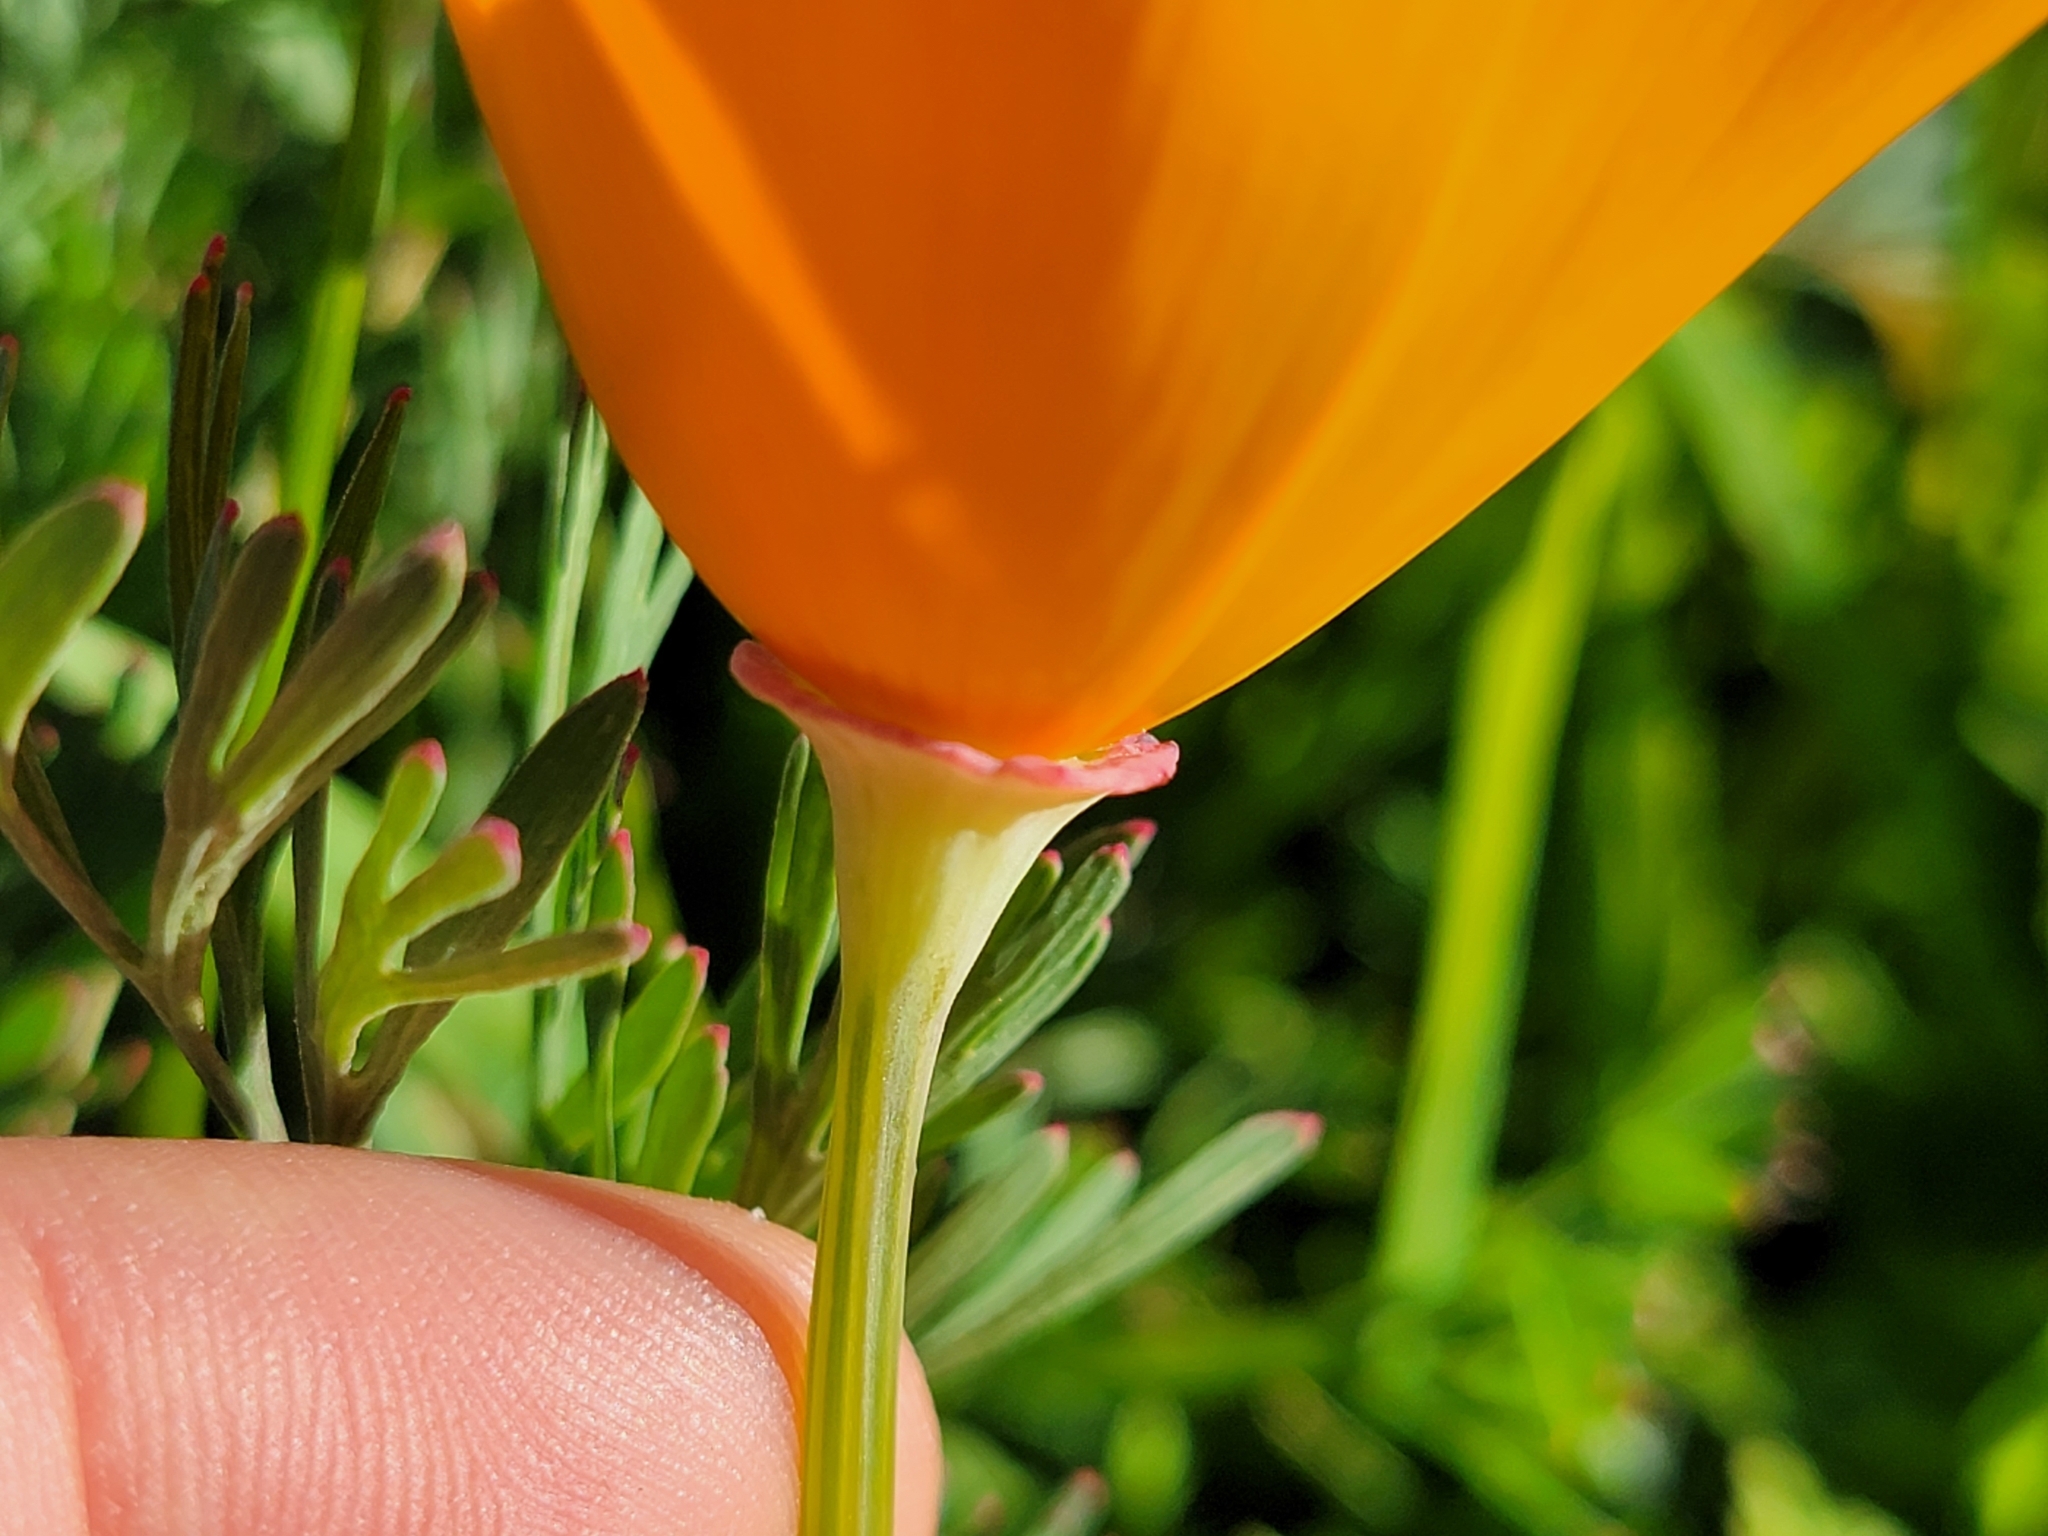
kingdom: Plantae
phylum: Tracheophyta
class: Magnoliopsida
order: Ranunculales
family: Papaveraceae
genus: Eschscholzia
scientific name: Eschscholzia californica
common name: California poppy
